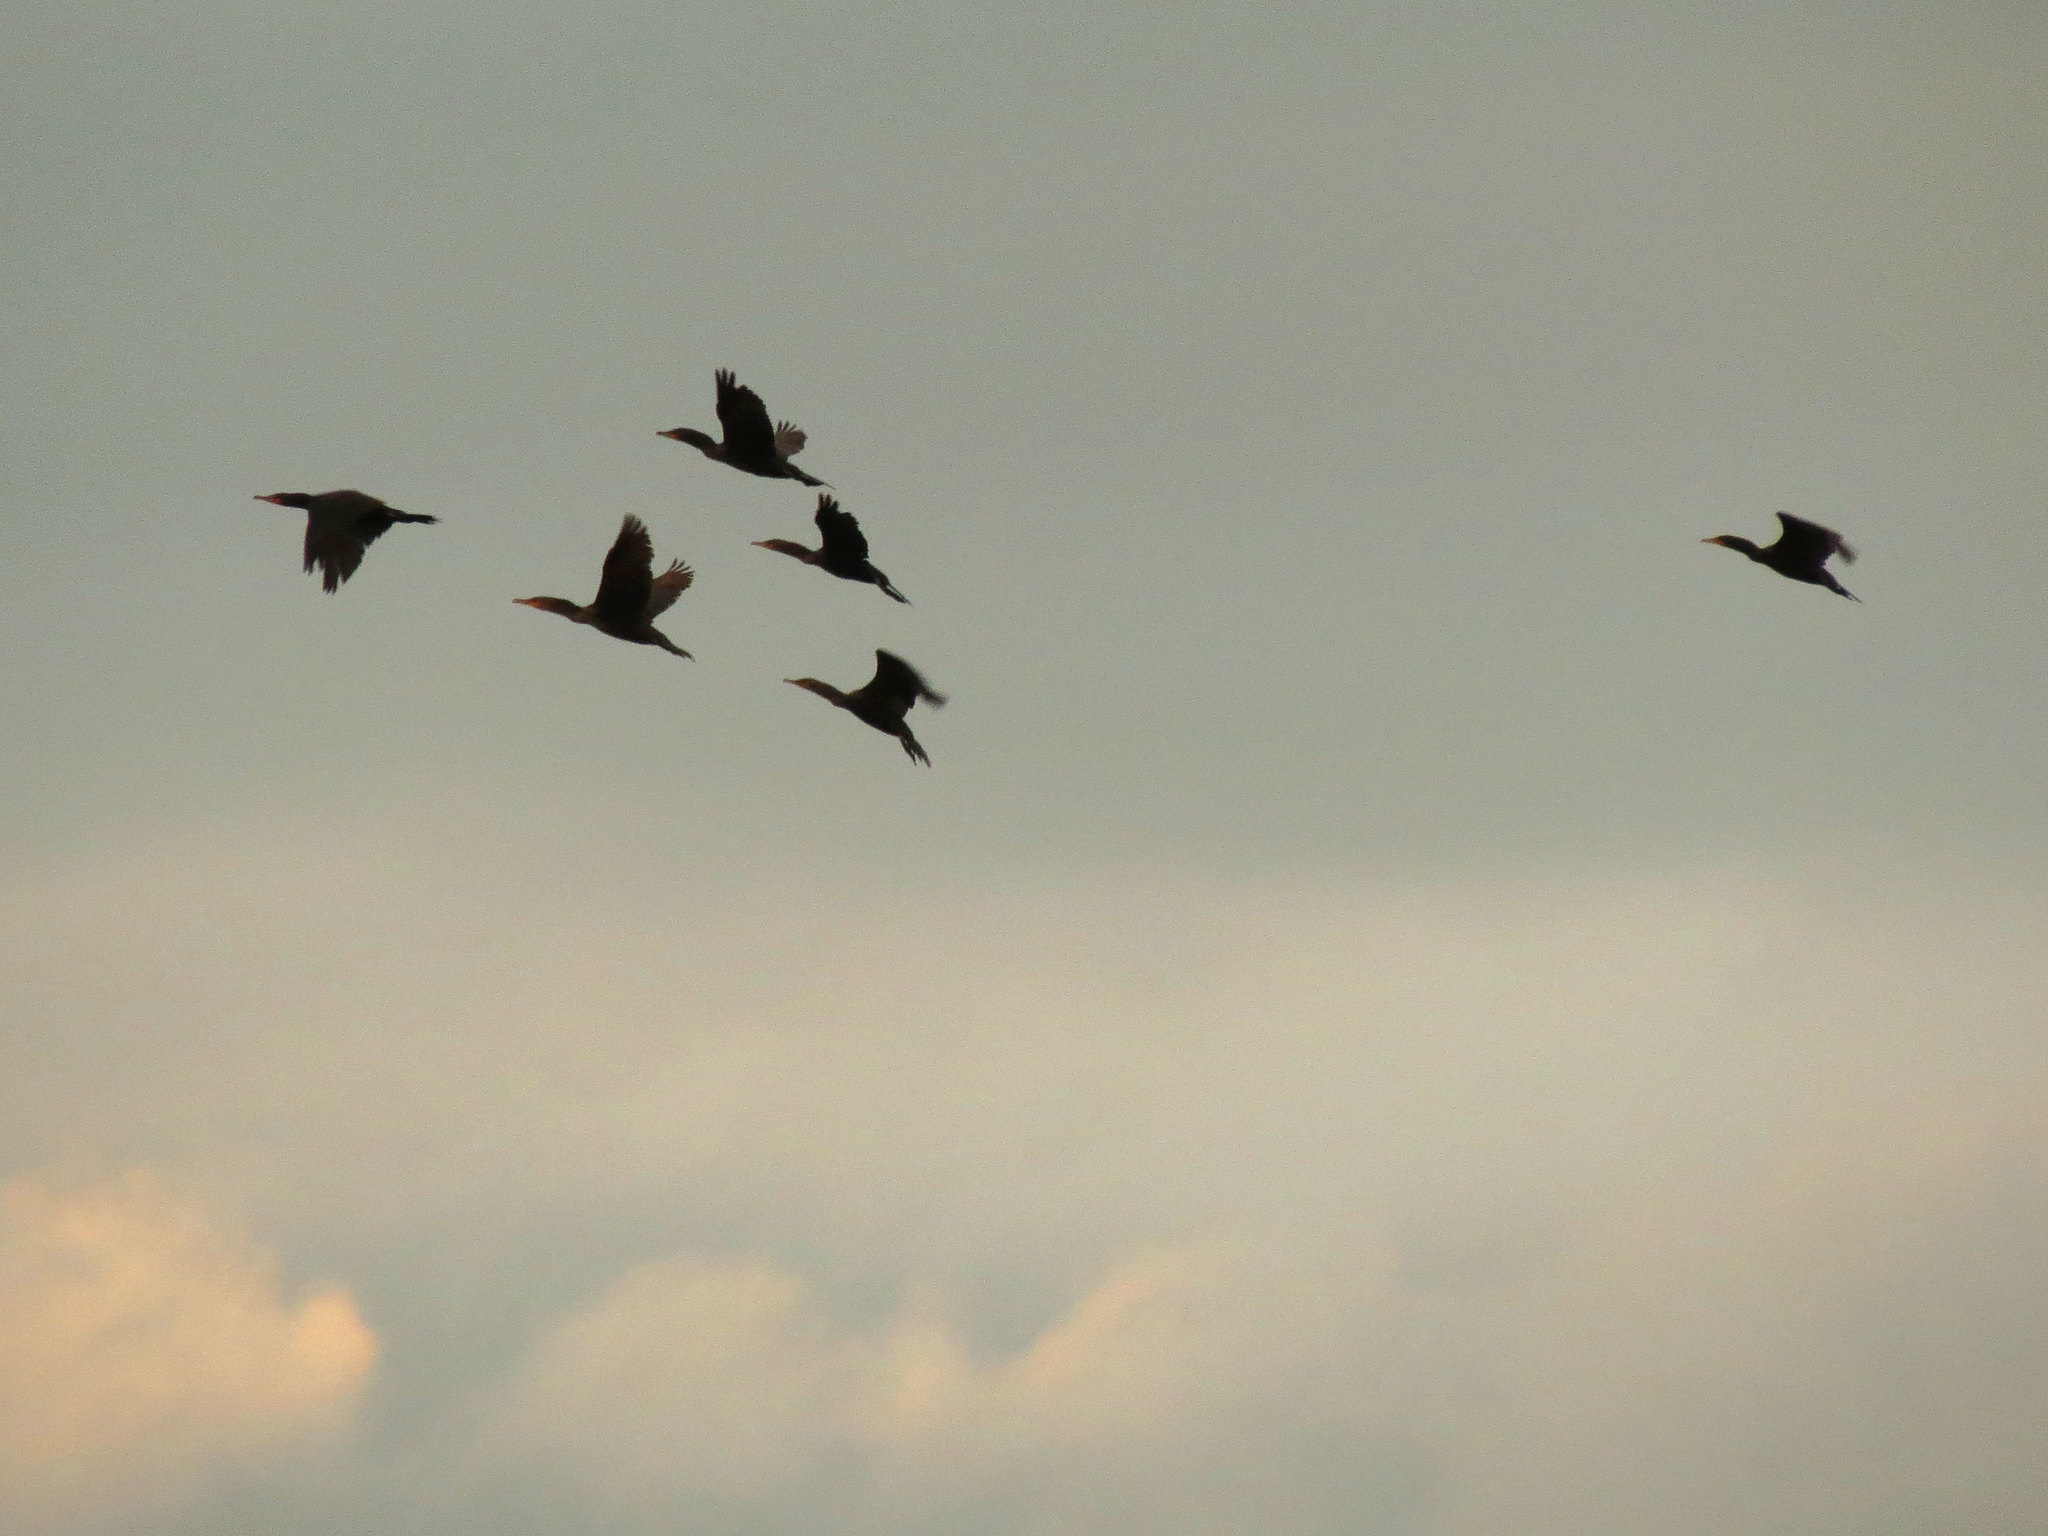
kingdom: Animalia
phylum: Chordata
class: Aves
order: Suliformes
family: Phalacrocoracidae
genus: Phalacrocorax
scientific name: Phalacrocorax auritus
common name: Double-crested cormorant
